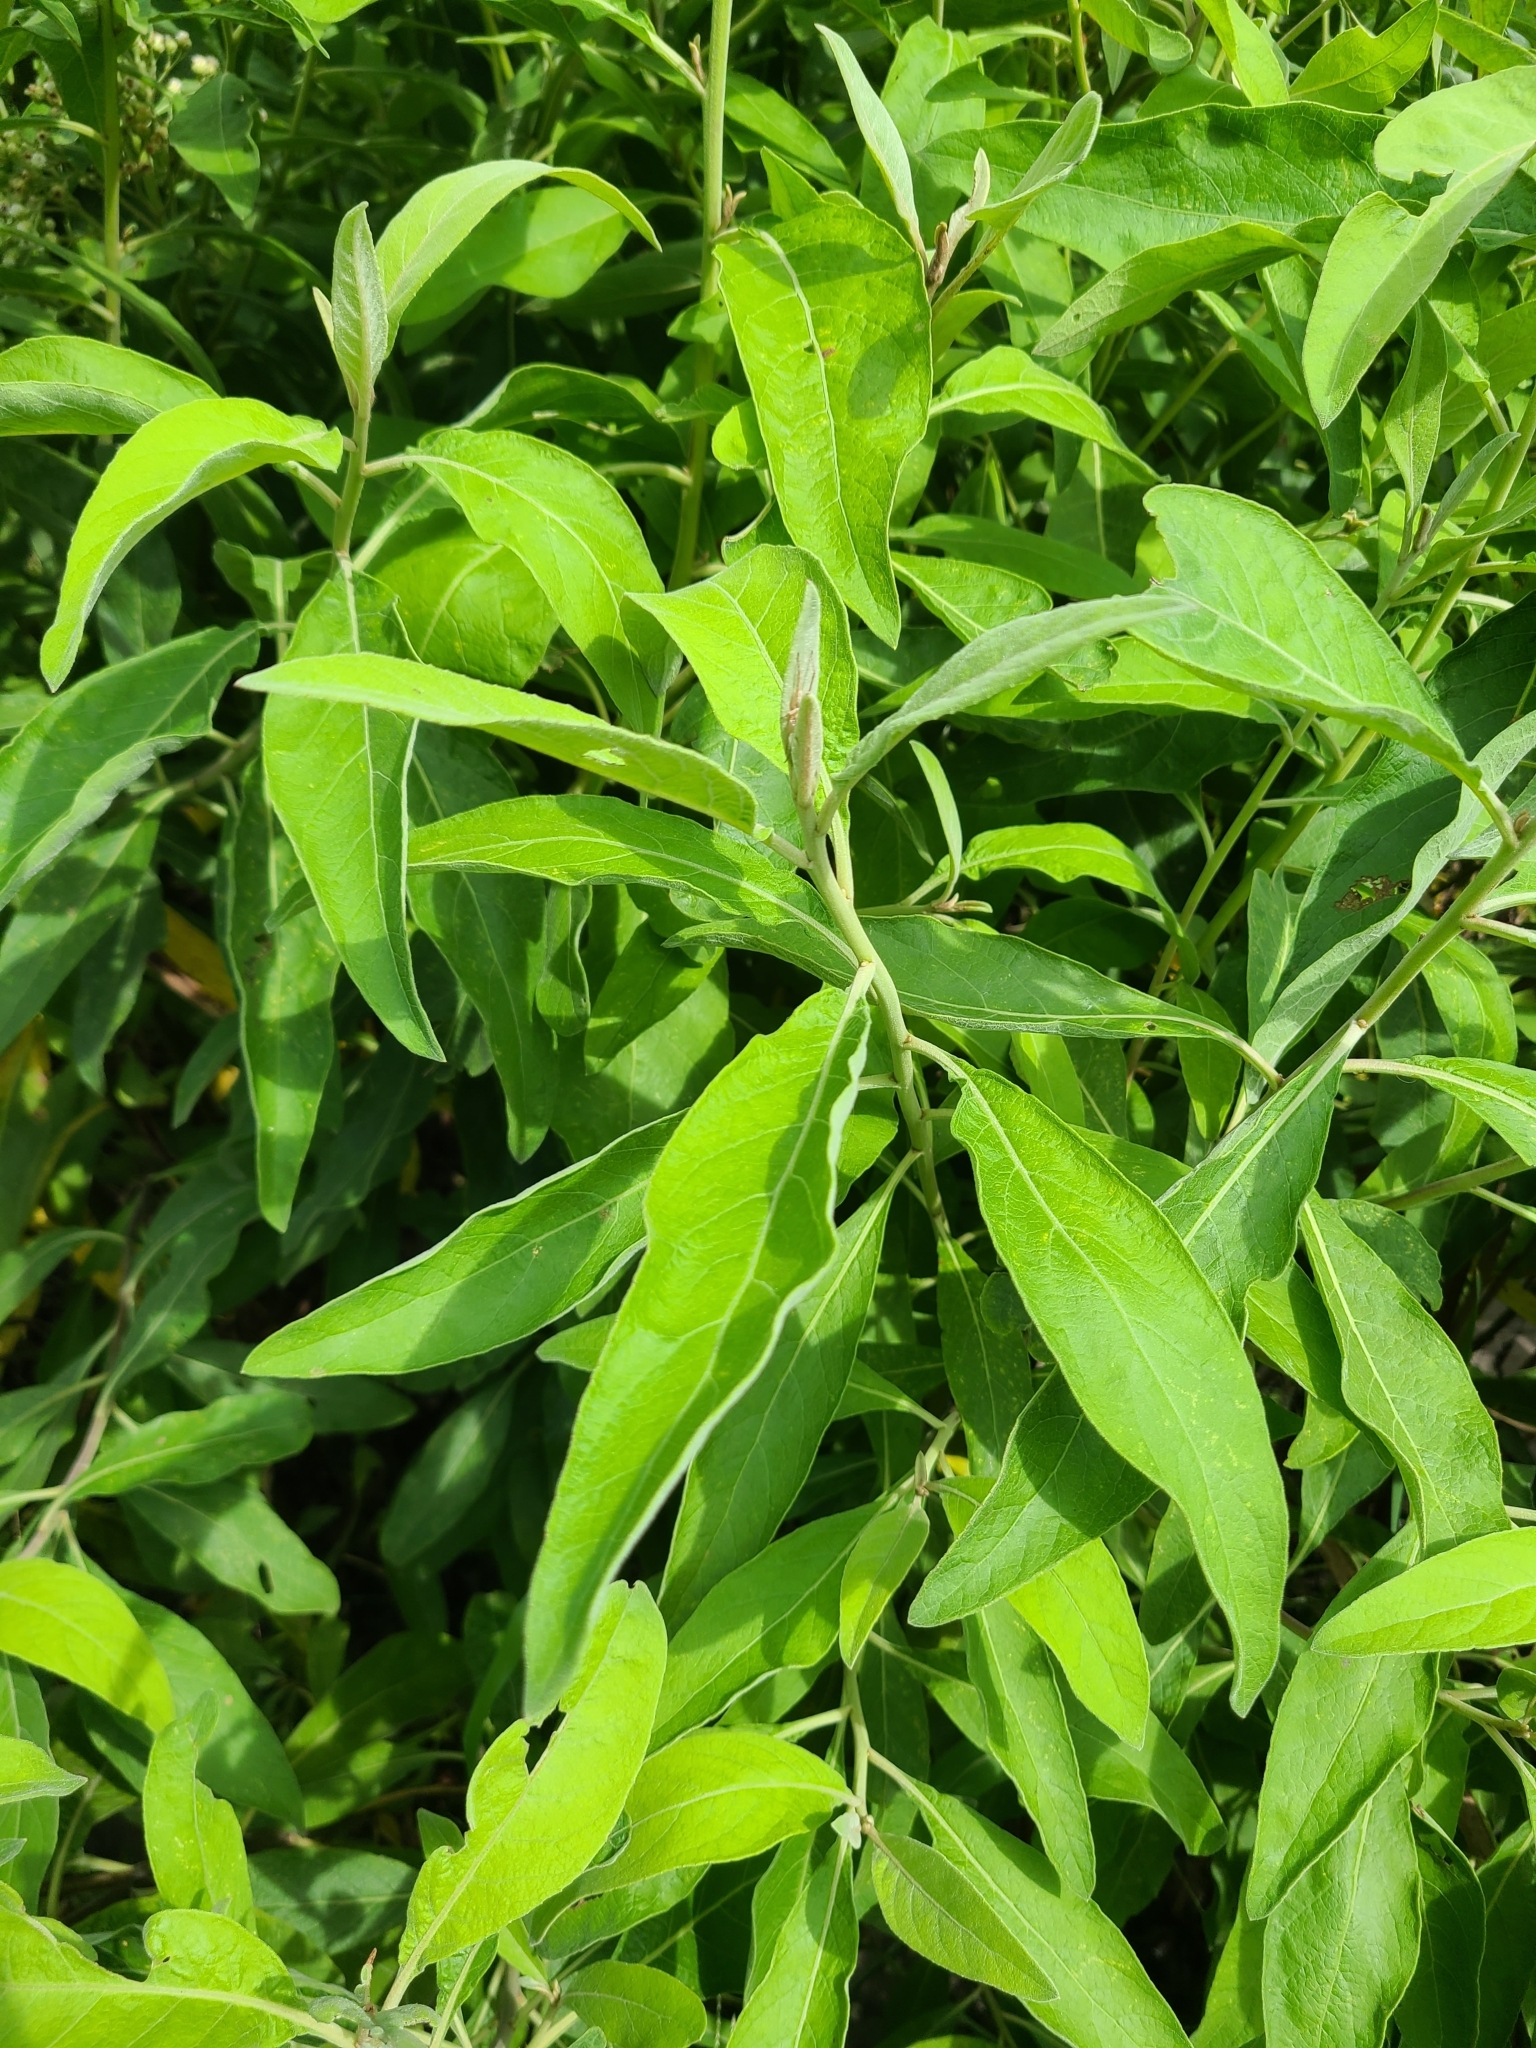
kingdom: Plantae
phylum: Tracheophyta
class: Magnoliopsida
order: Asterales
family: Asteraceae
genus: Pluchea
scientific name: Pluchea carolinensis
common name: Marsh fleabane
